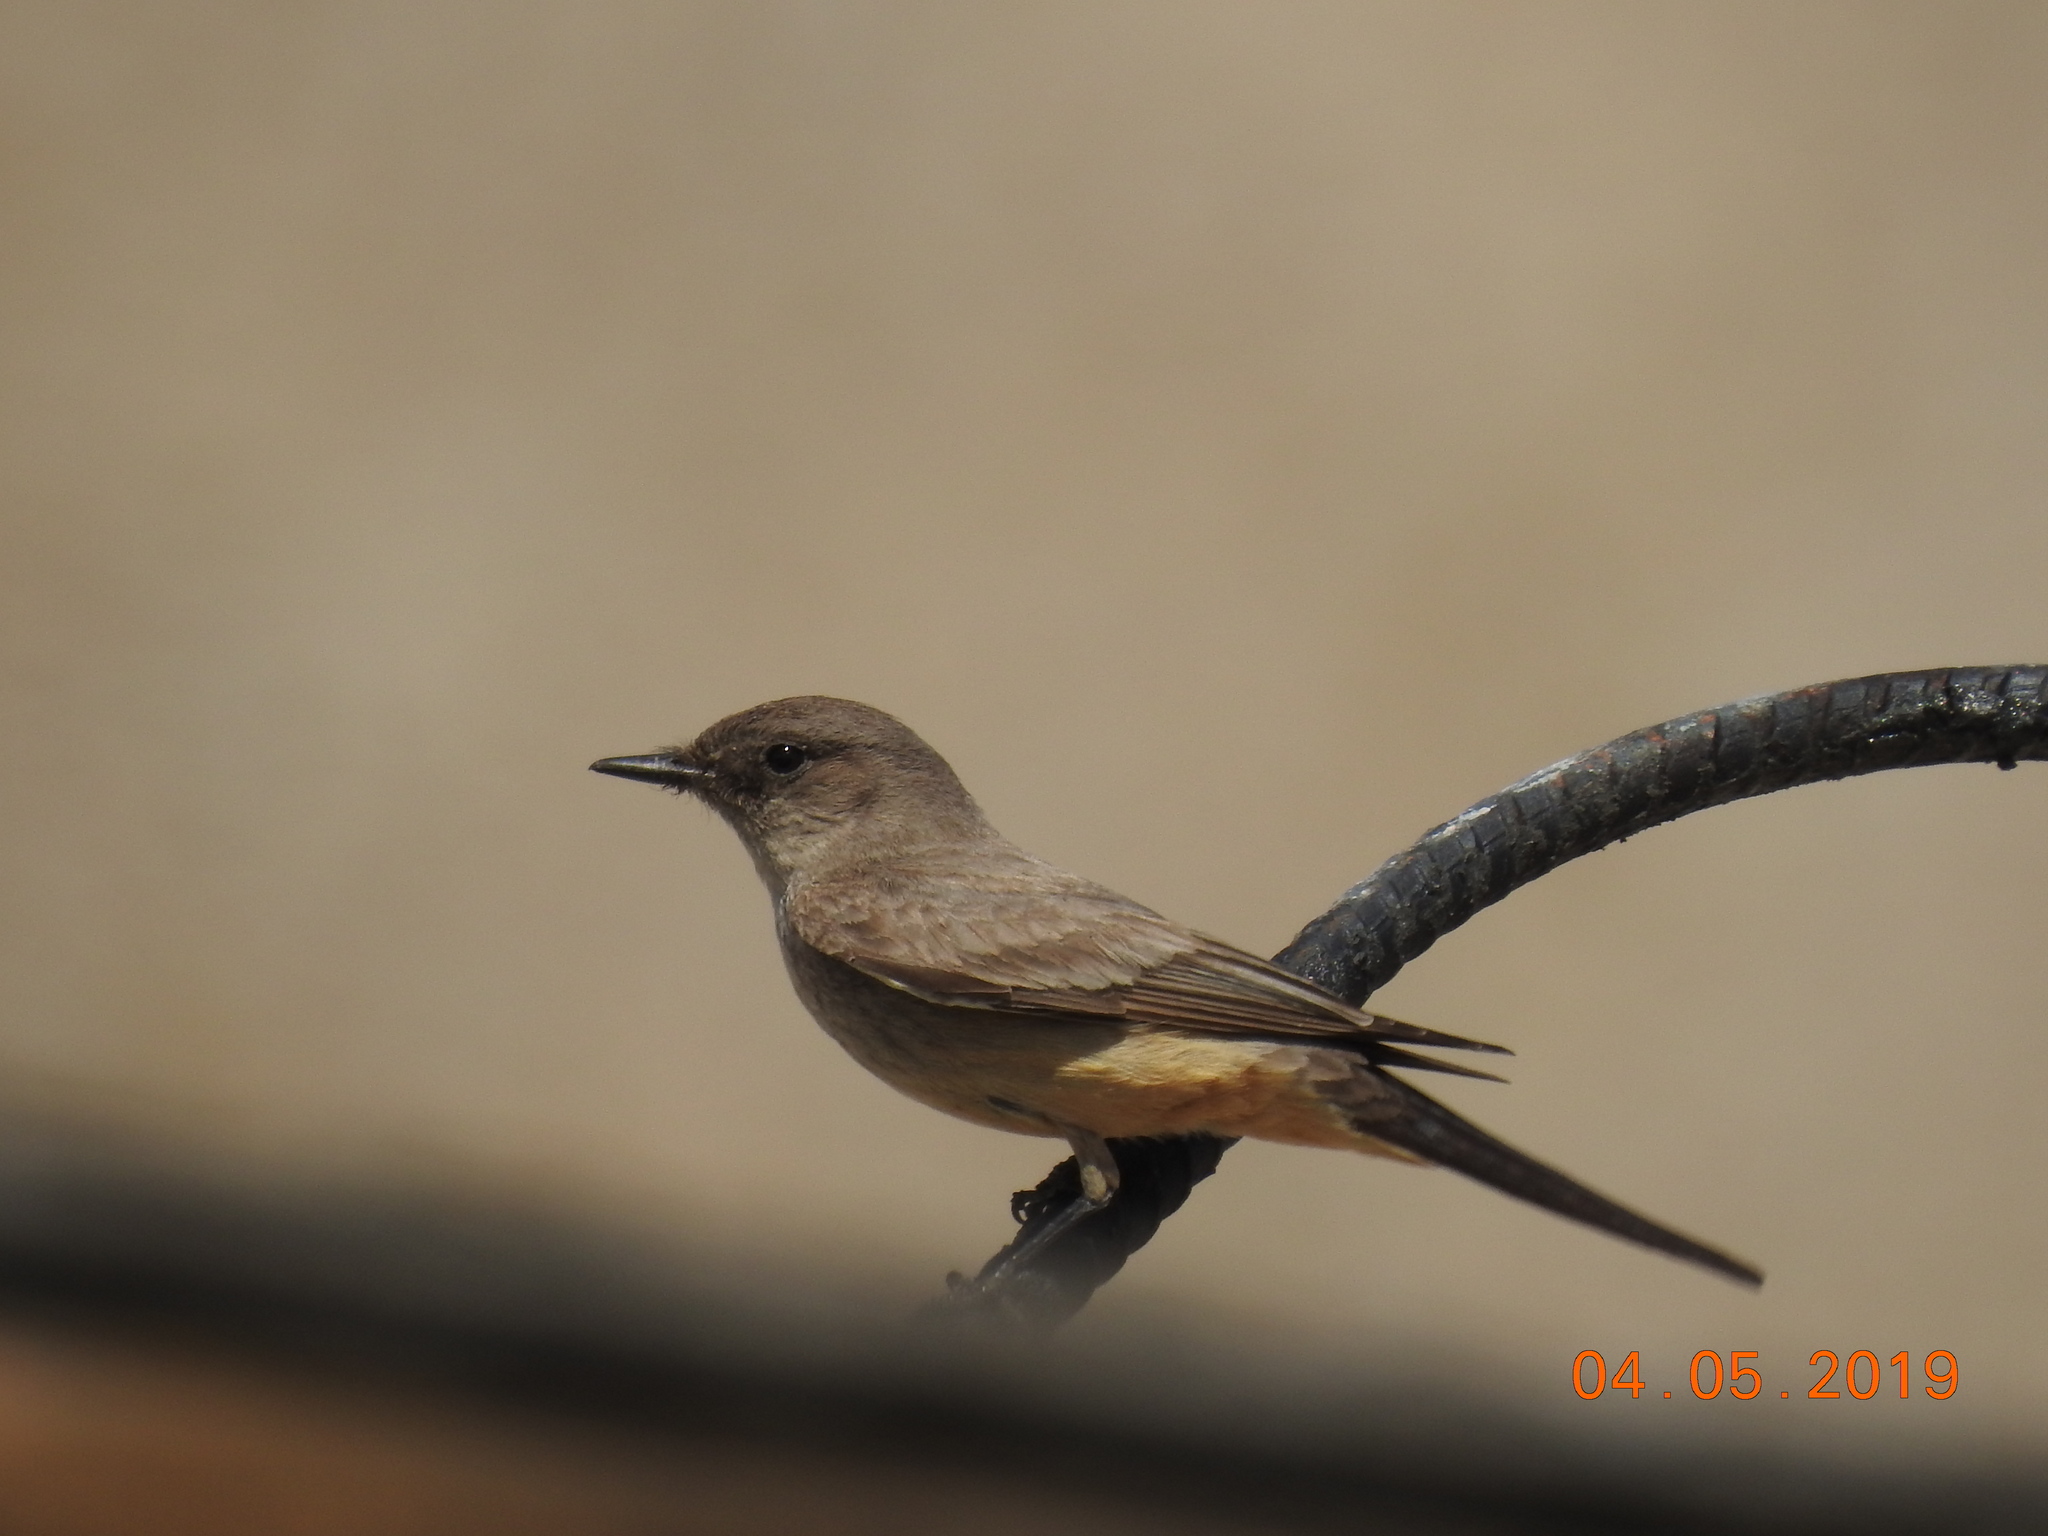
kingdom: Animalia
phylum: Chordata
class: Aves
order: Passeriformes
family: Tyrannidae
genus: Sayornis
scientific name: Sayornis saya
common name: Say's phoebe
